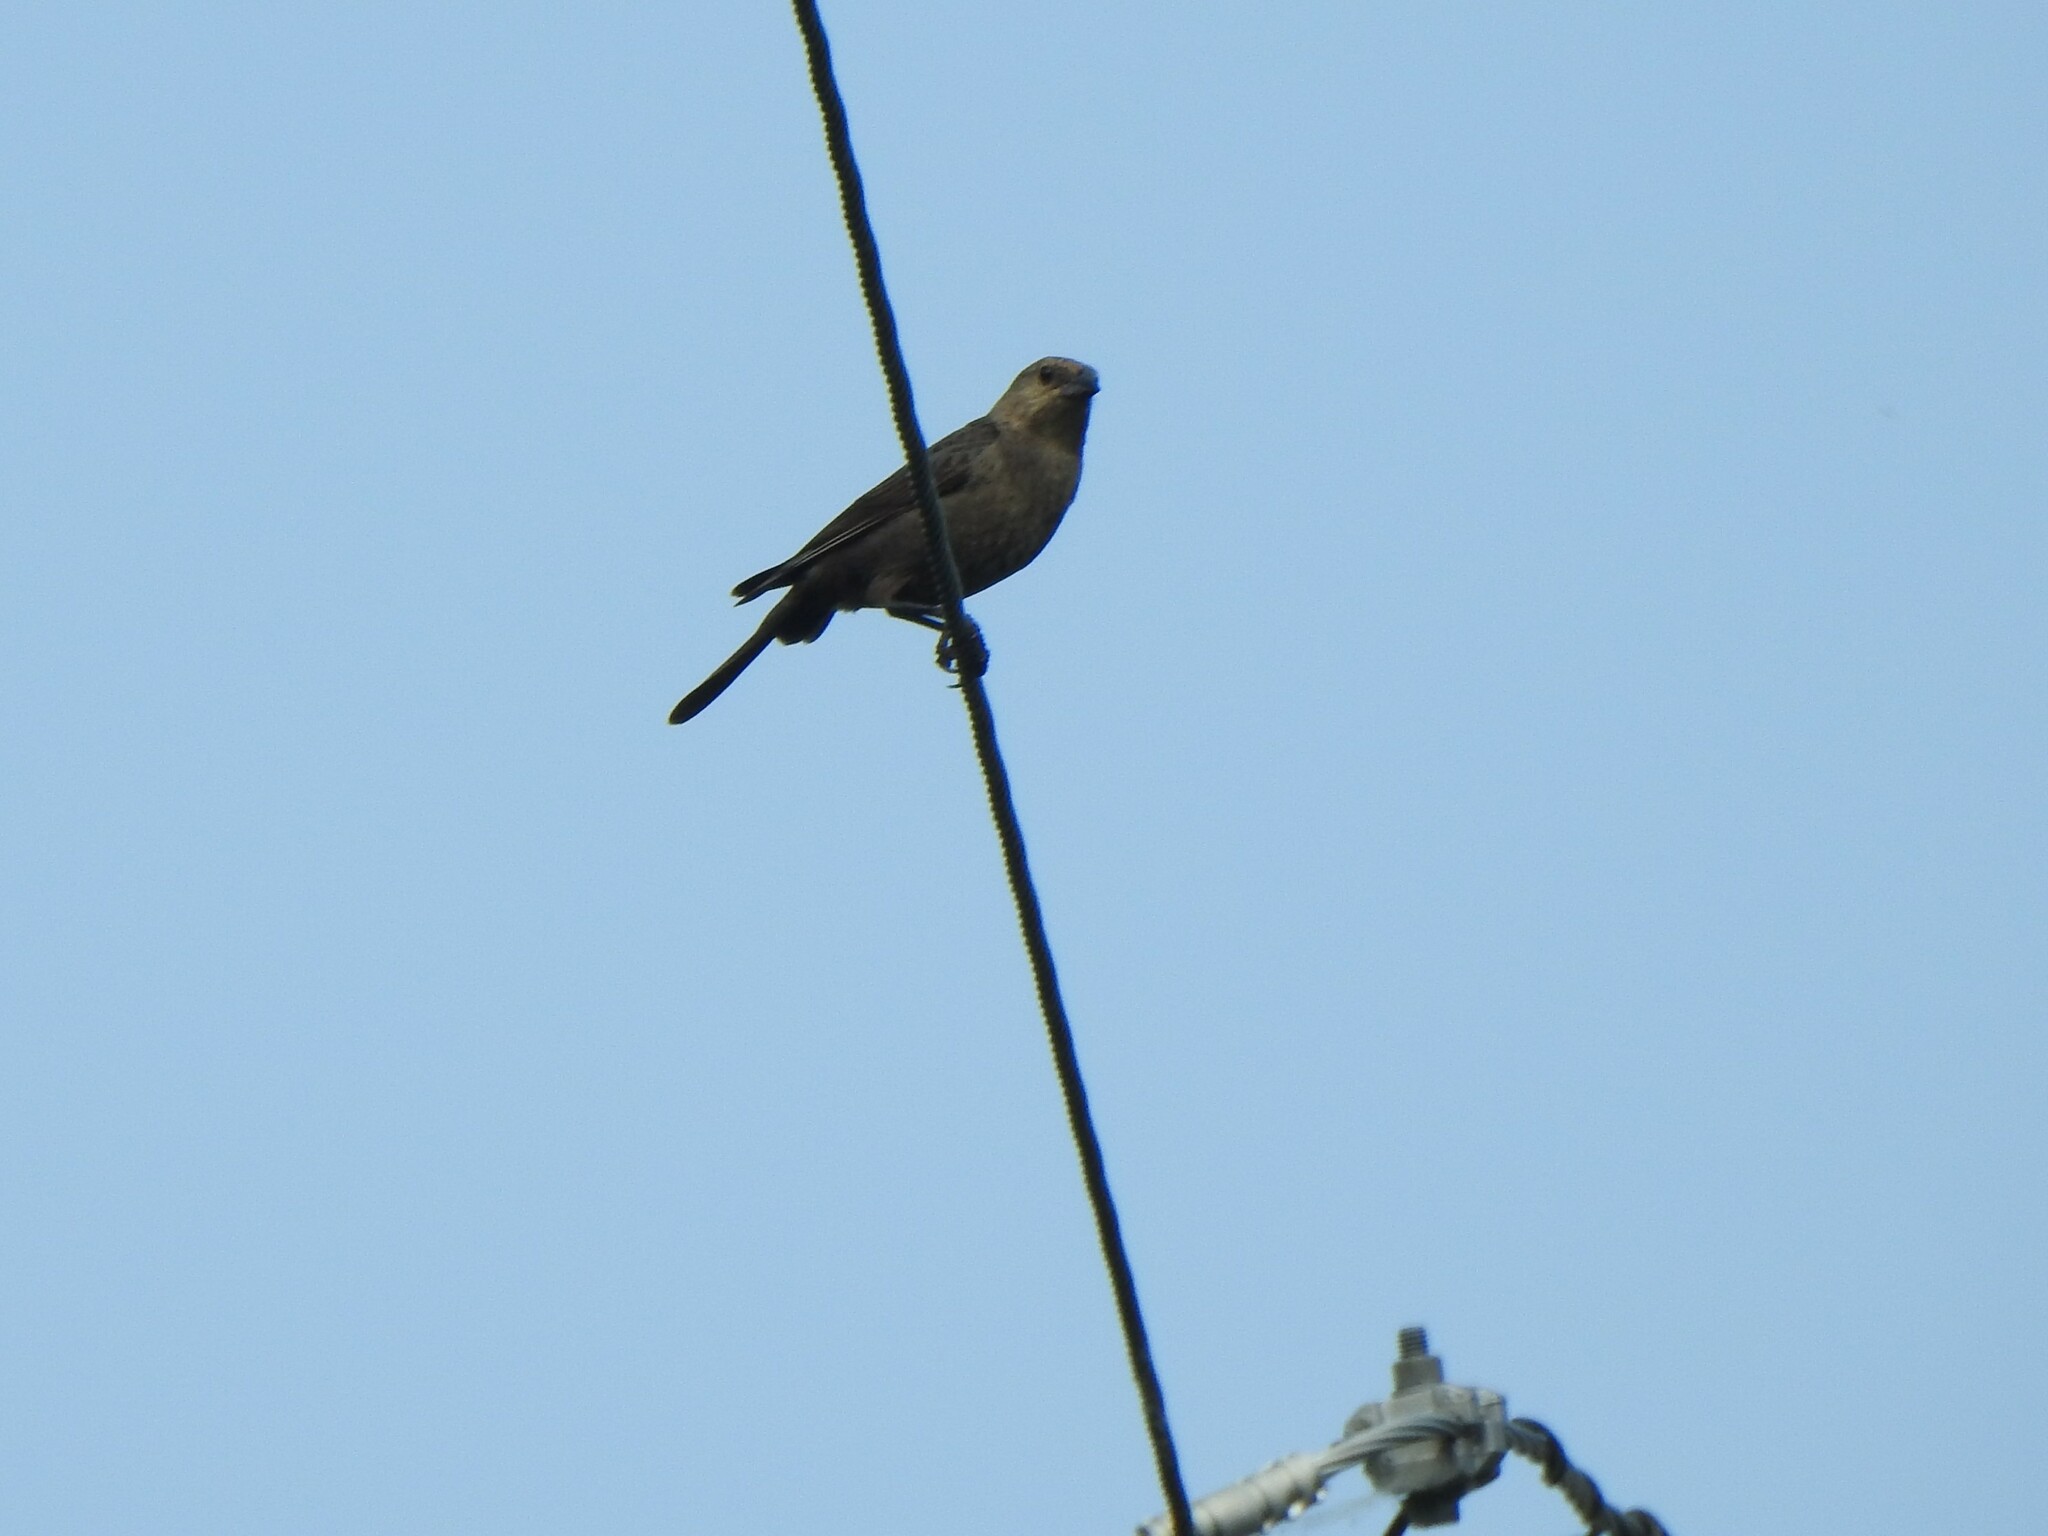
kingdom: Animalia
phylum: Chordata
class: Aves
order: Passeriformes
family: Icteridae
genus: Molothrus
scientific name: Molothrus ater
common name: Brown-headed cowbird
